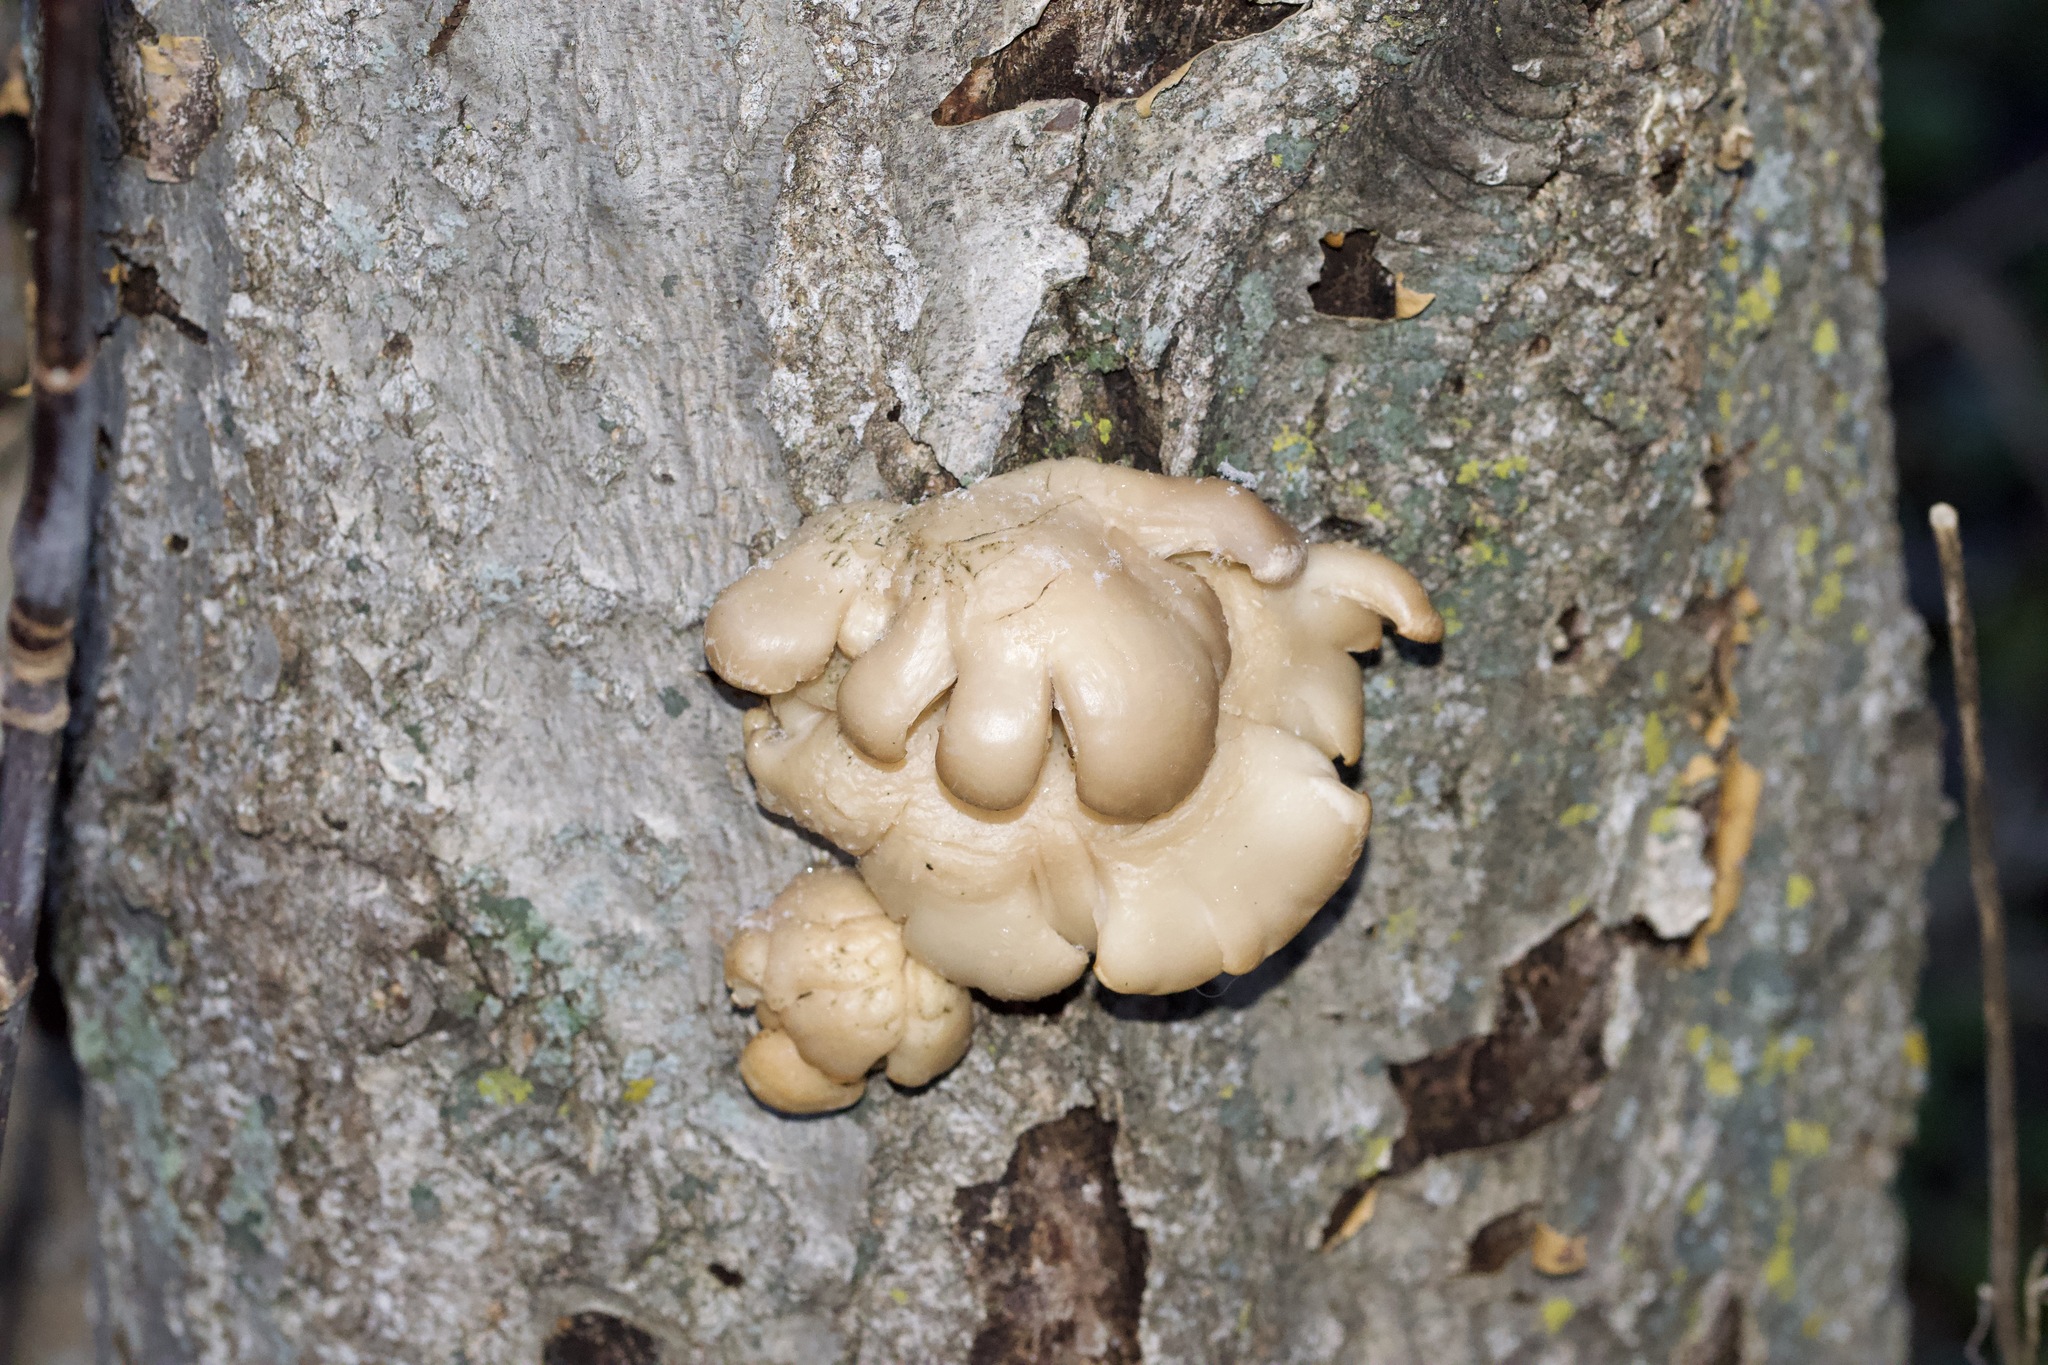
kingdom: Fungi
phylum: Basidiomycota
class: Agaricomycetes
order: Agaricales
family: Pleurotaceae
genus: Pleurotus
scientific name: Pleurotus ostreatus
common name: Oyster mushroom
